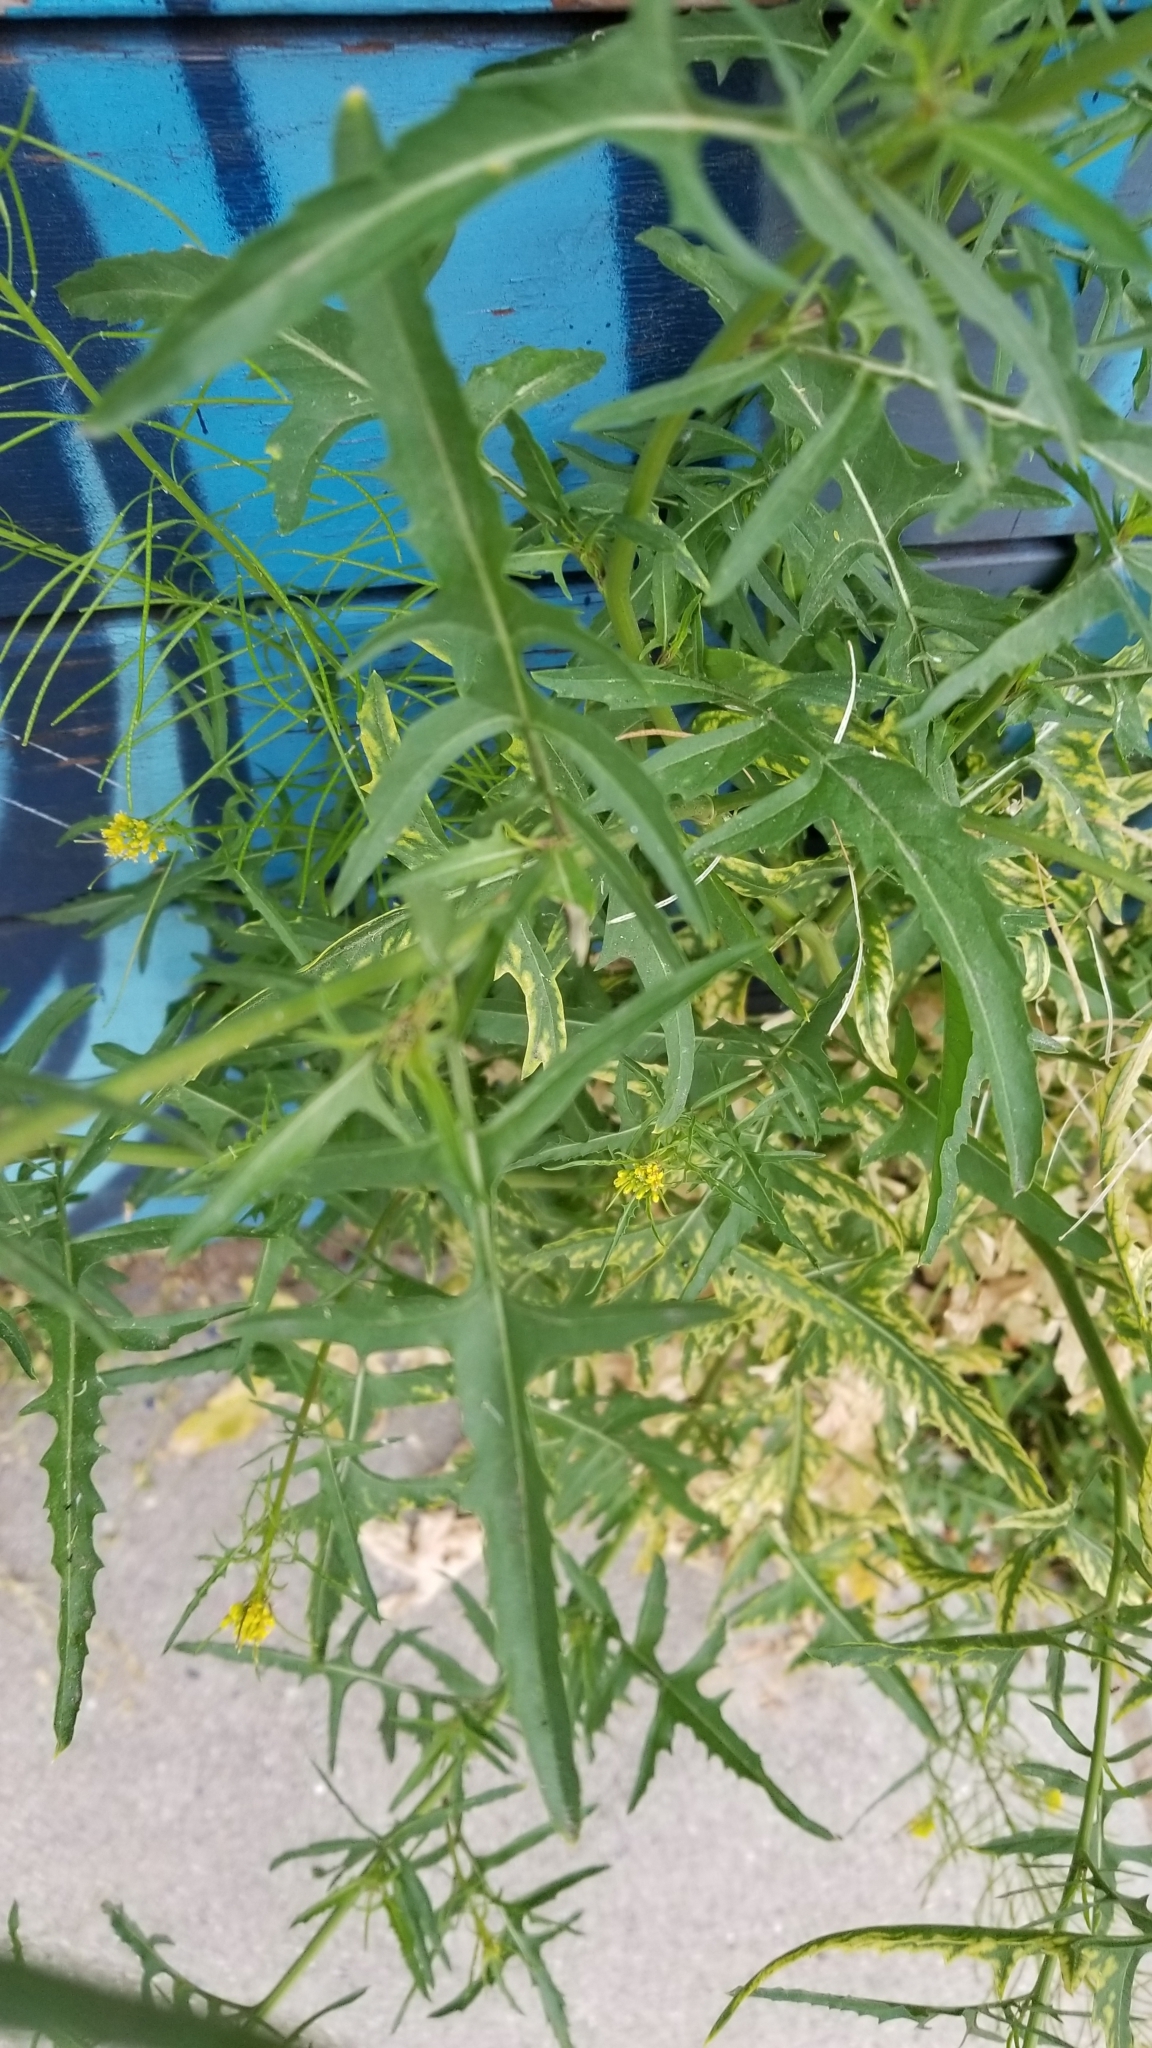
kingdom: Plantae
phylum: Tracheophyta
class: Magnoliopsida
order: Brassicales
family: Brassicaceae
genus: Sisymbrium
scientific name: Sisymbrium irio
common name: London rocket
